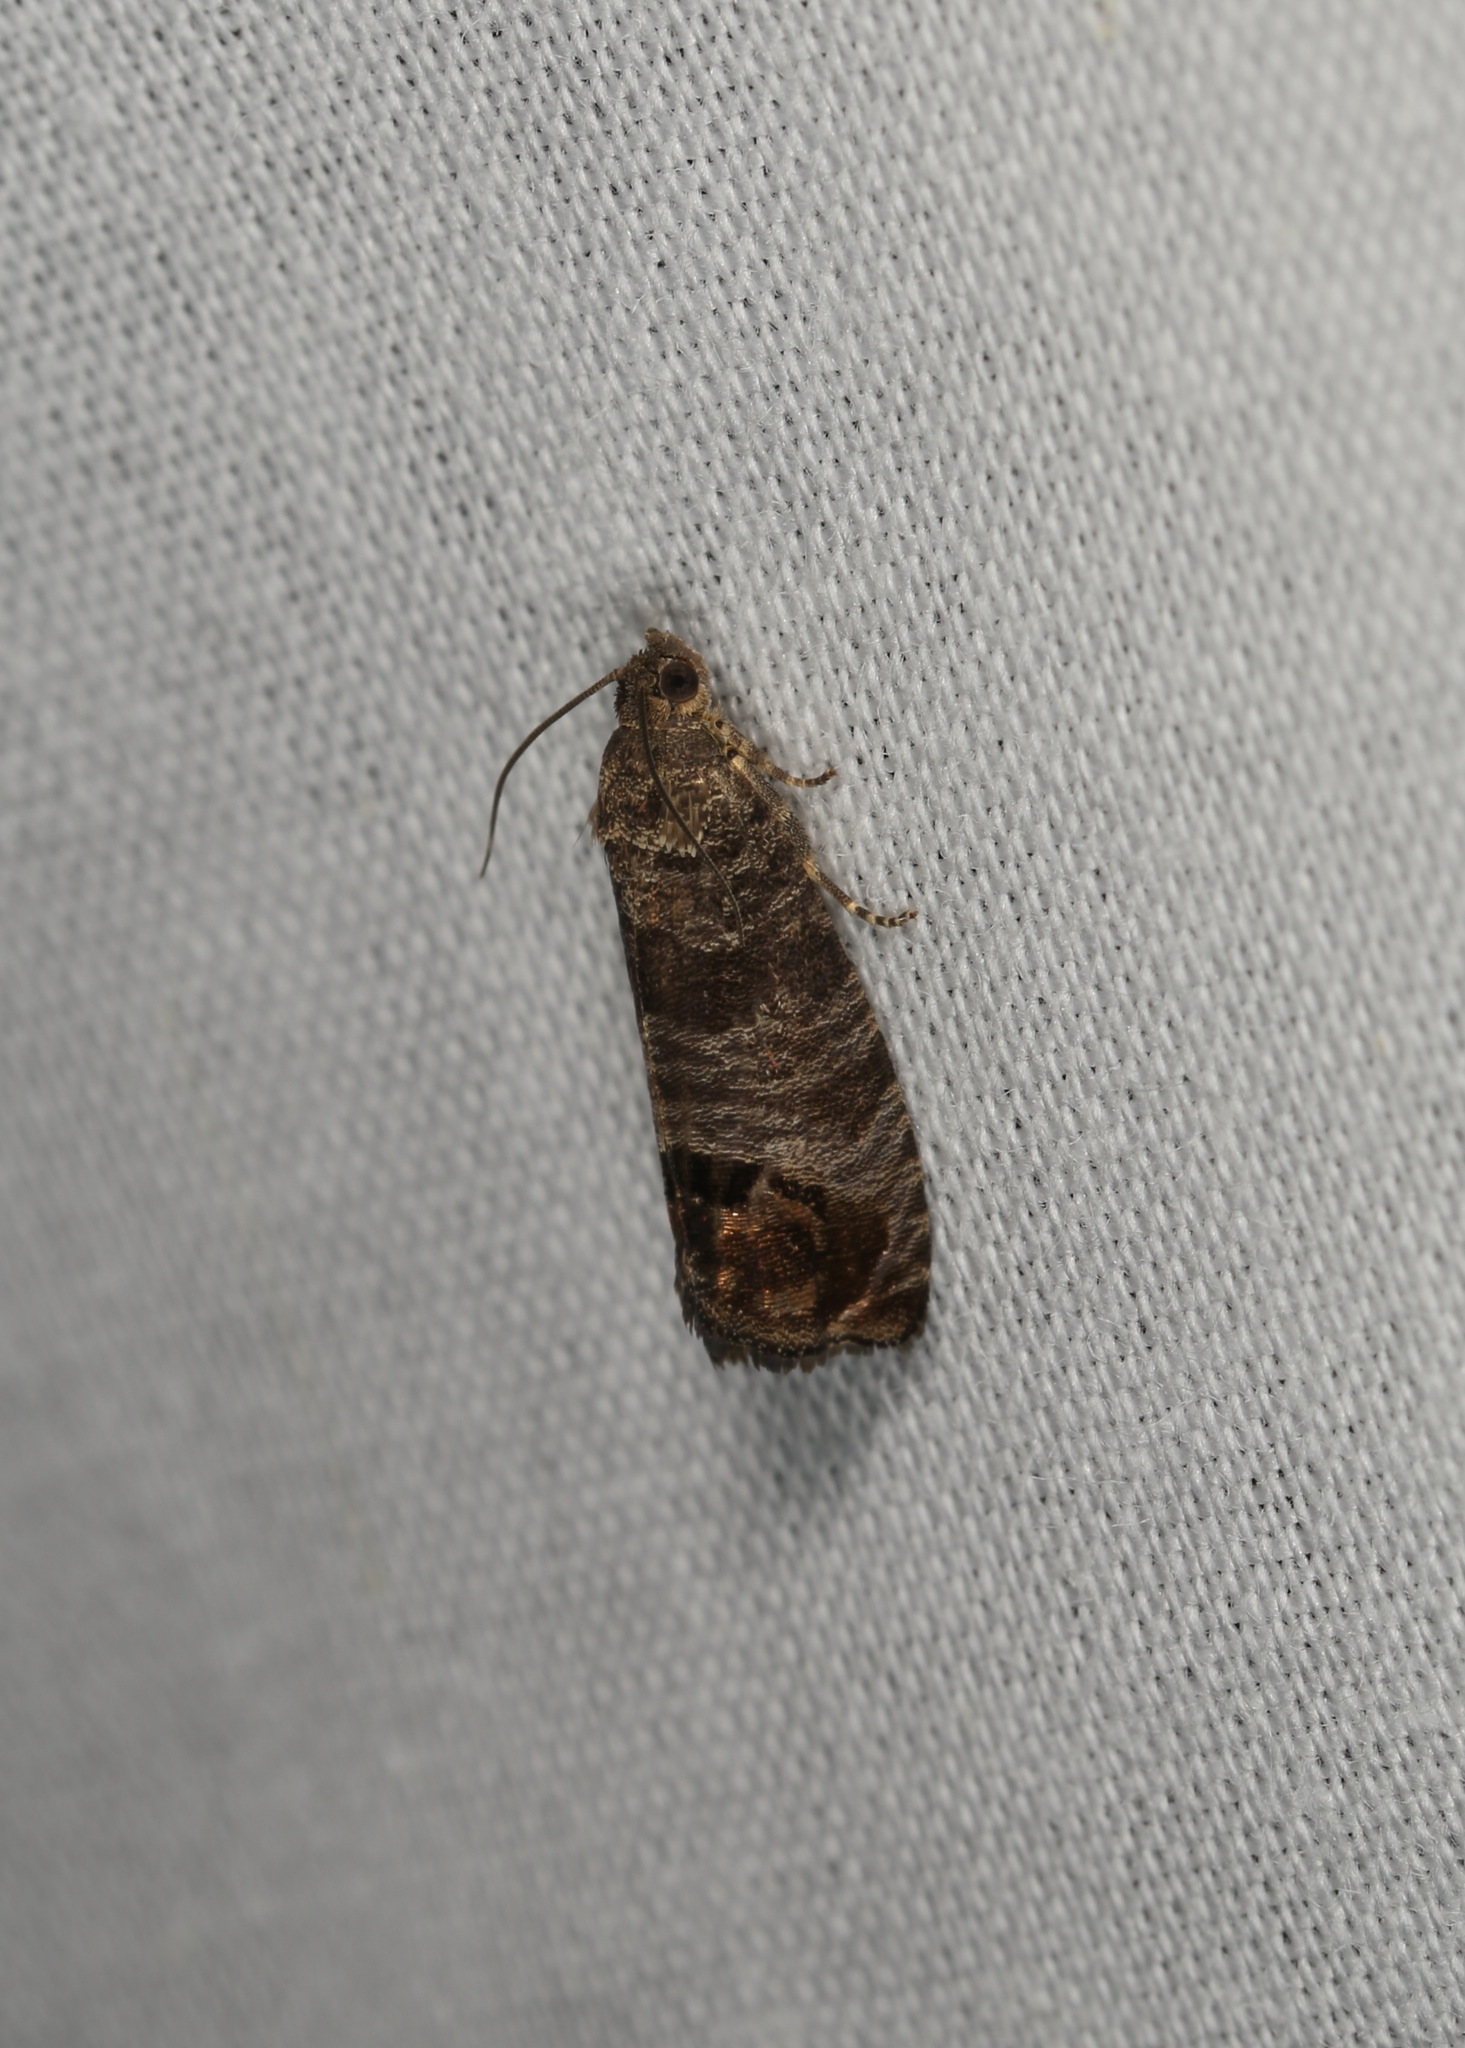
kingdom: Animalia
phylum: Arthropoda
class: Insecta
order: Lepidoptera
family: Tortricidae
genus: Cydia
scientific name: Cydia pomonella
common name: Codling moth
